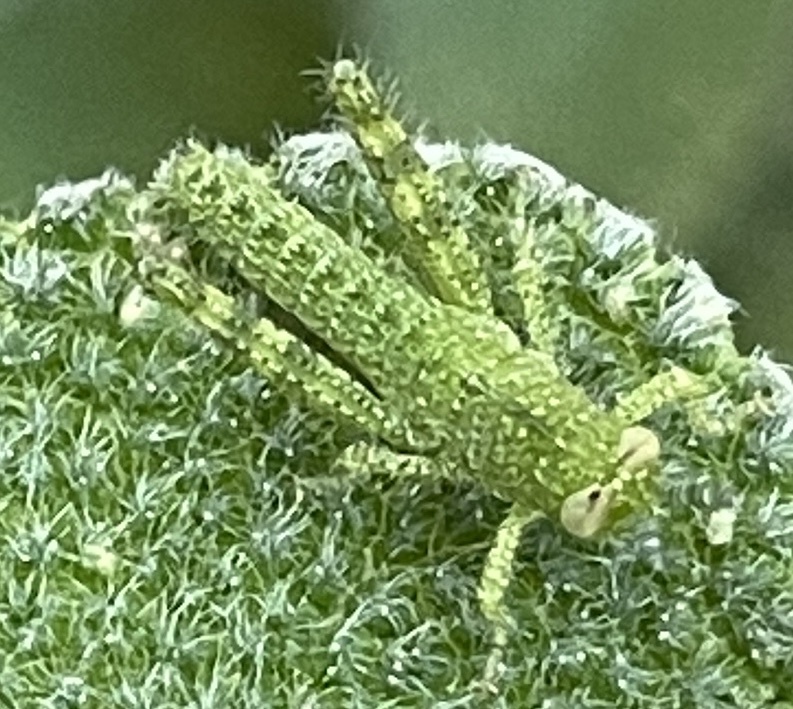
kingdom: Animalia
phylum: Arthropoda
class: Insecta
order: Orthoptera
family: Acrididae
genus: Schistocerca
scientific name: Schistocerca nitens
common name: Vagrant grasshopper
